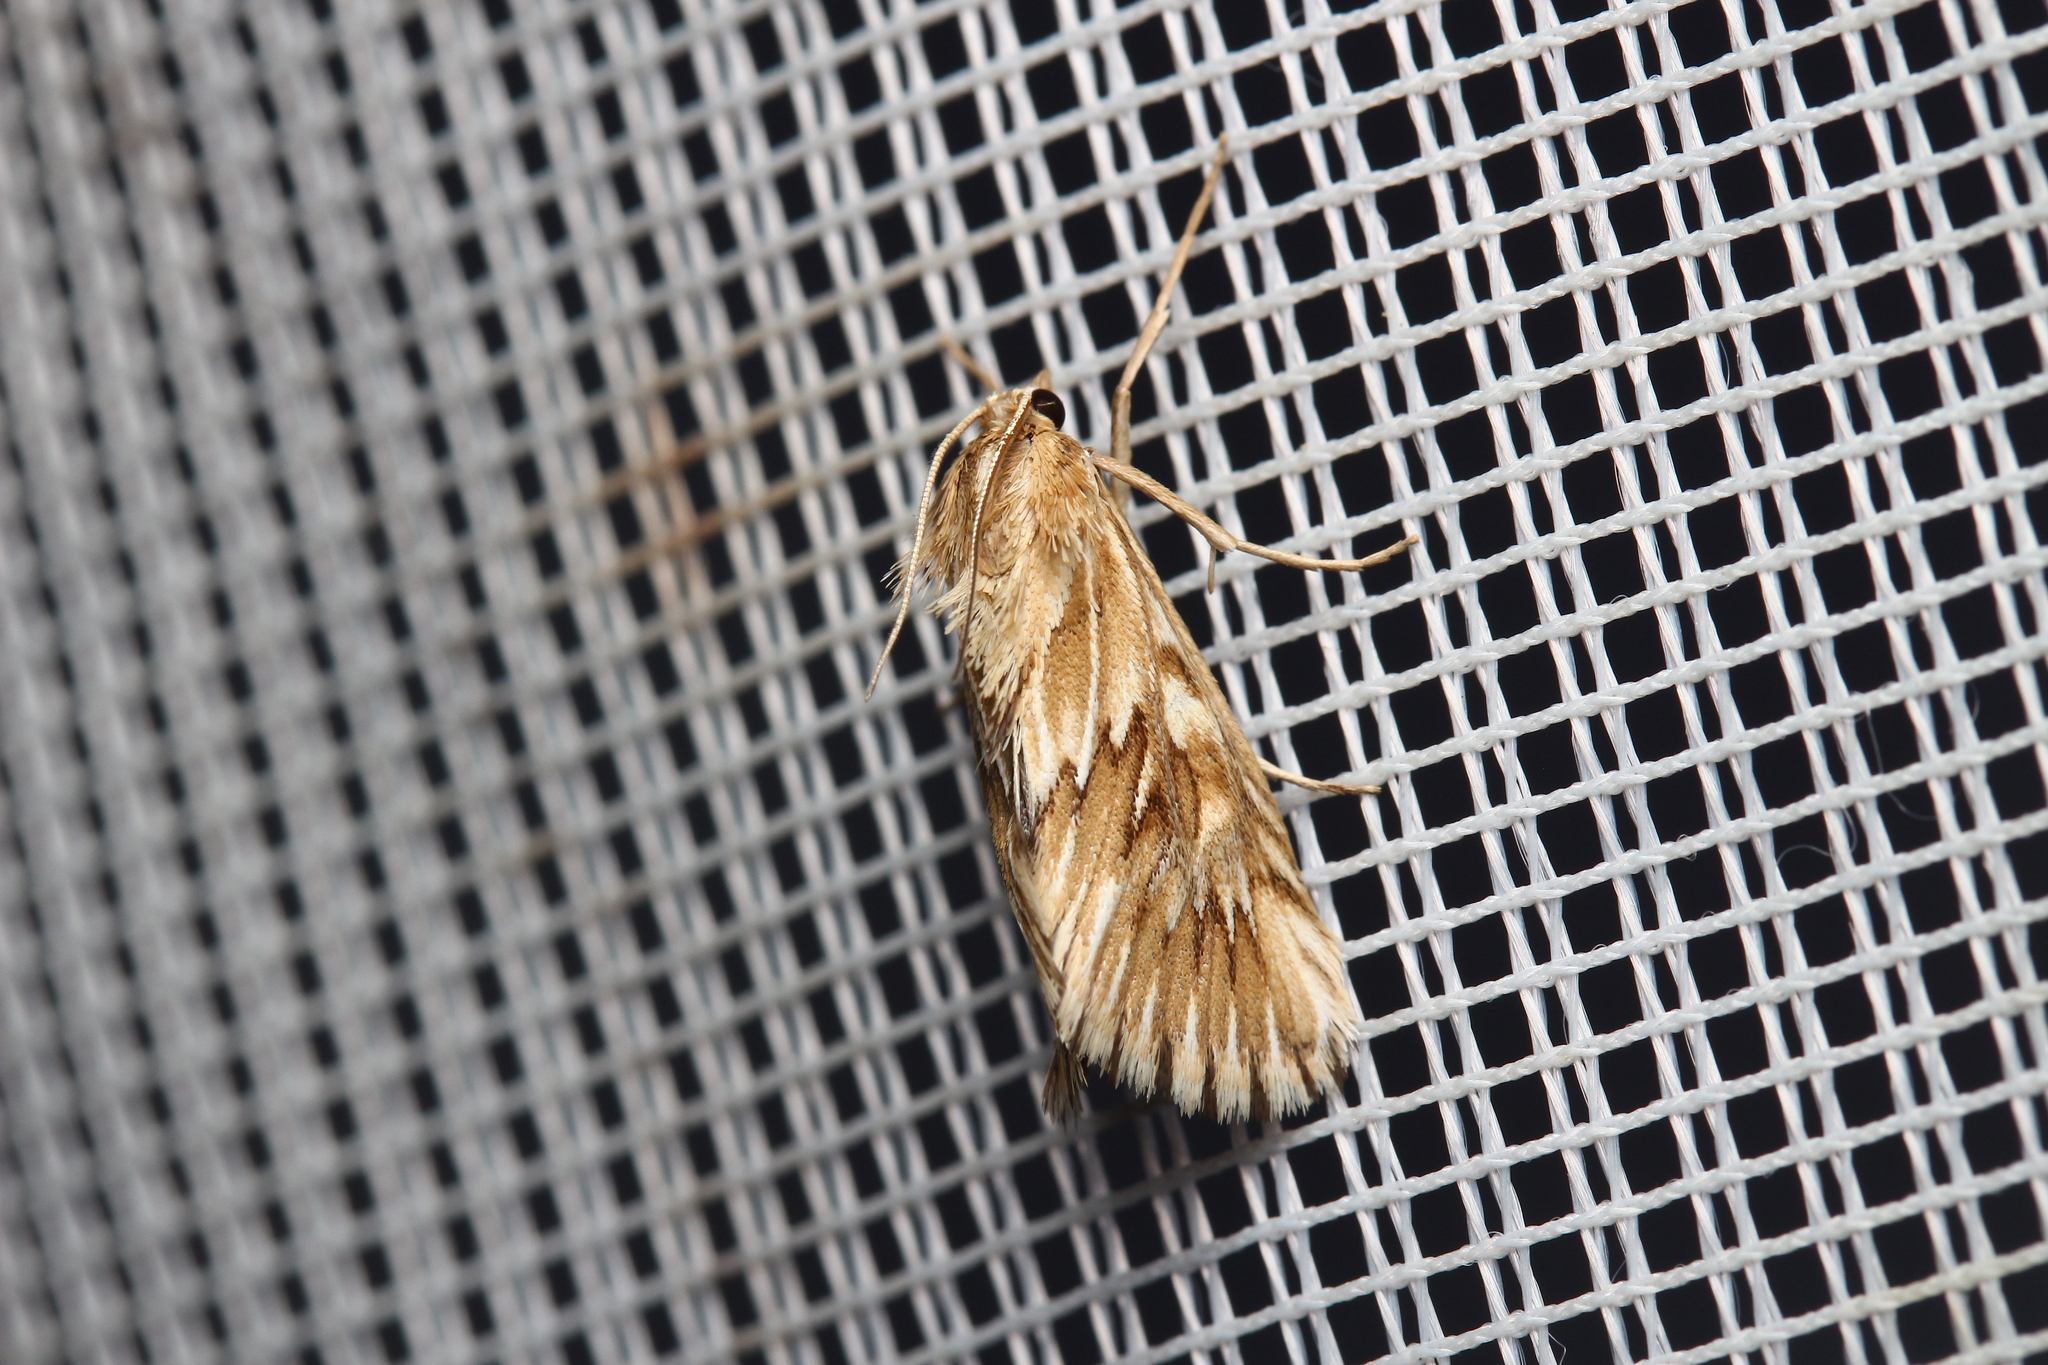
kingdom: Animalia
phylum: Arthropoda
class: Insecta
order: Lepidoptera
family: Crambidae
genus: Cynaeda
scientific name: Cynaeda dentalis
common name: Starry pearl
